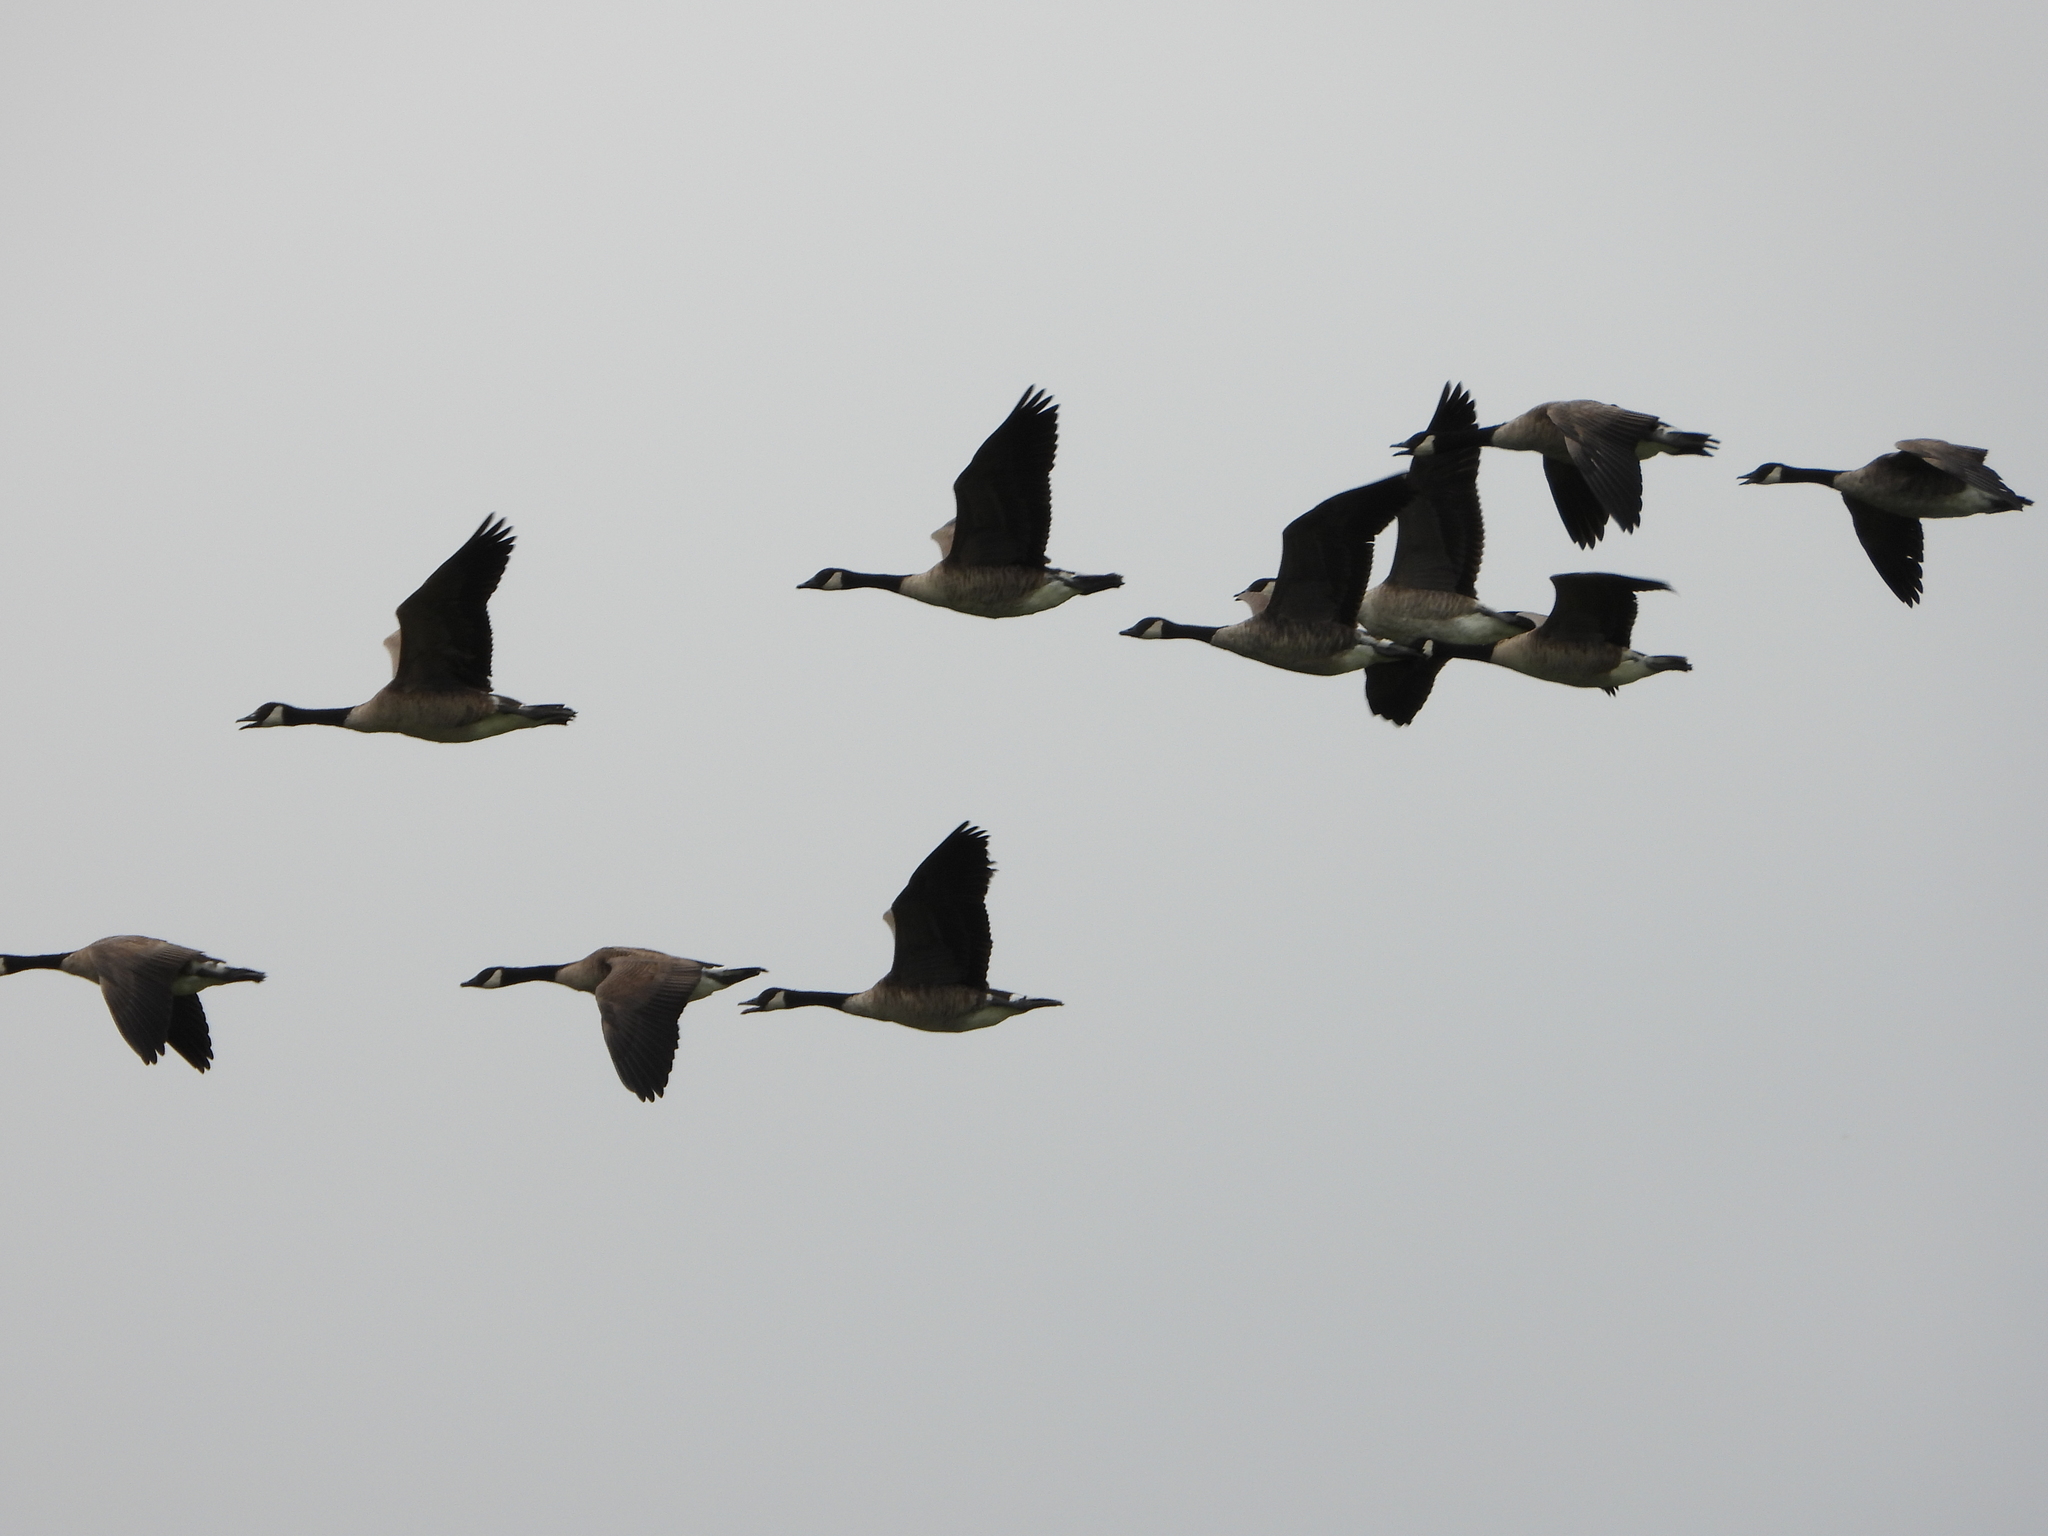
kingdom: Animalia
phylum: Chordata
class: Aves
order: Anseriformes
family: Anatidae
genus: Branta
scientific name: Branta canadensis
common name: Canada goose
